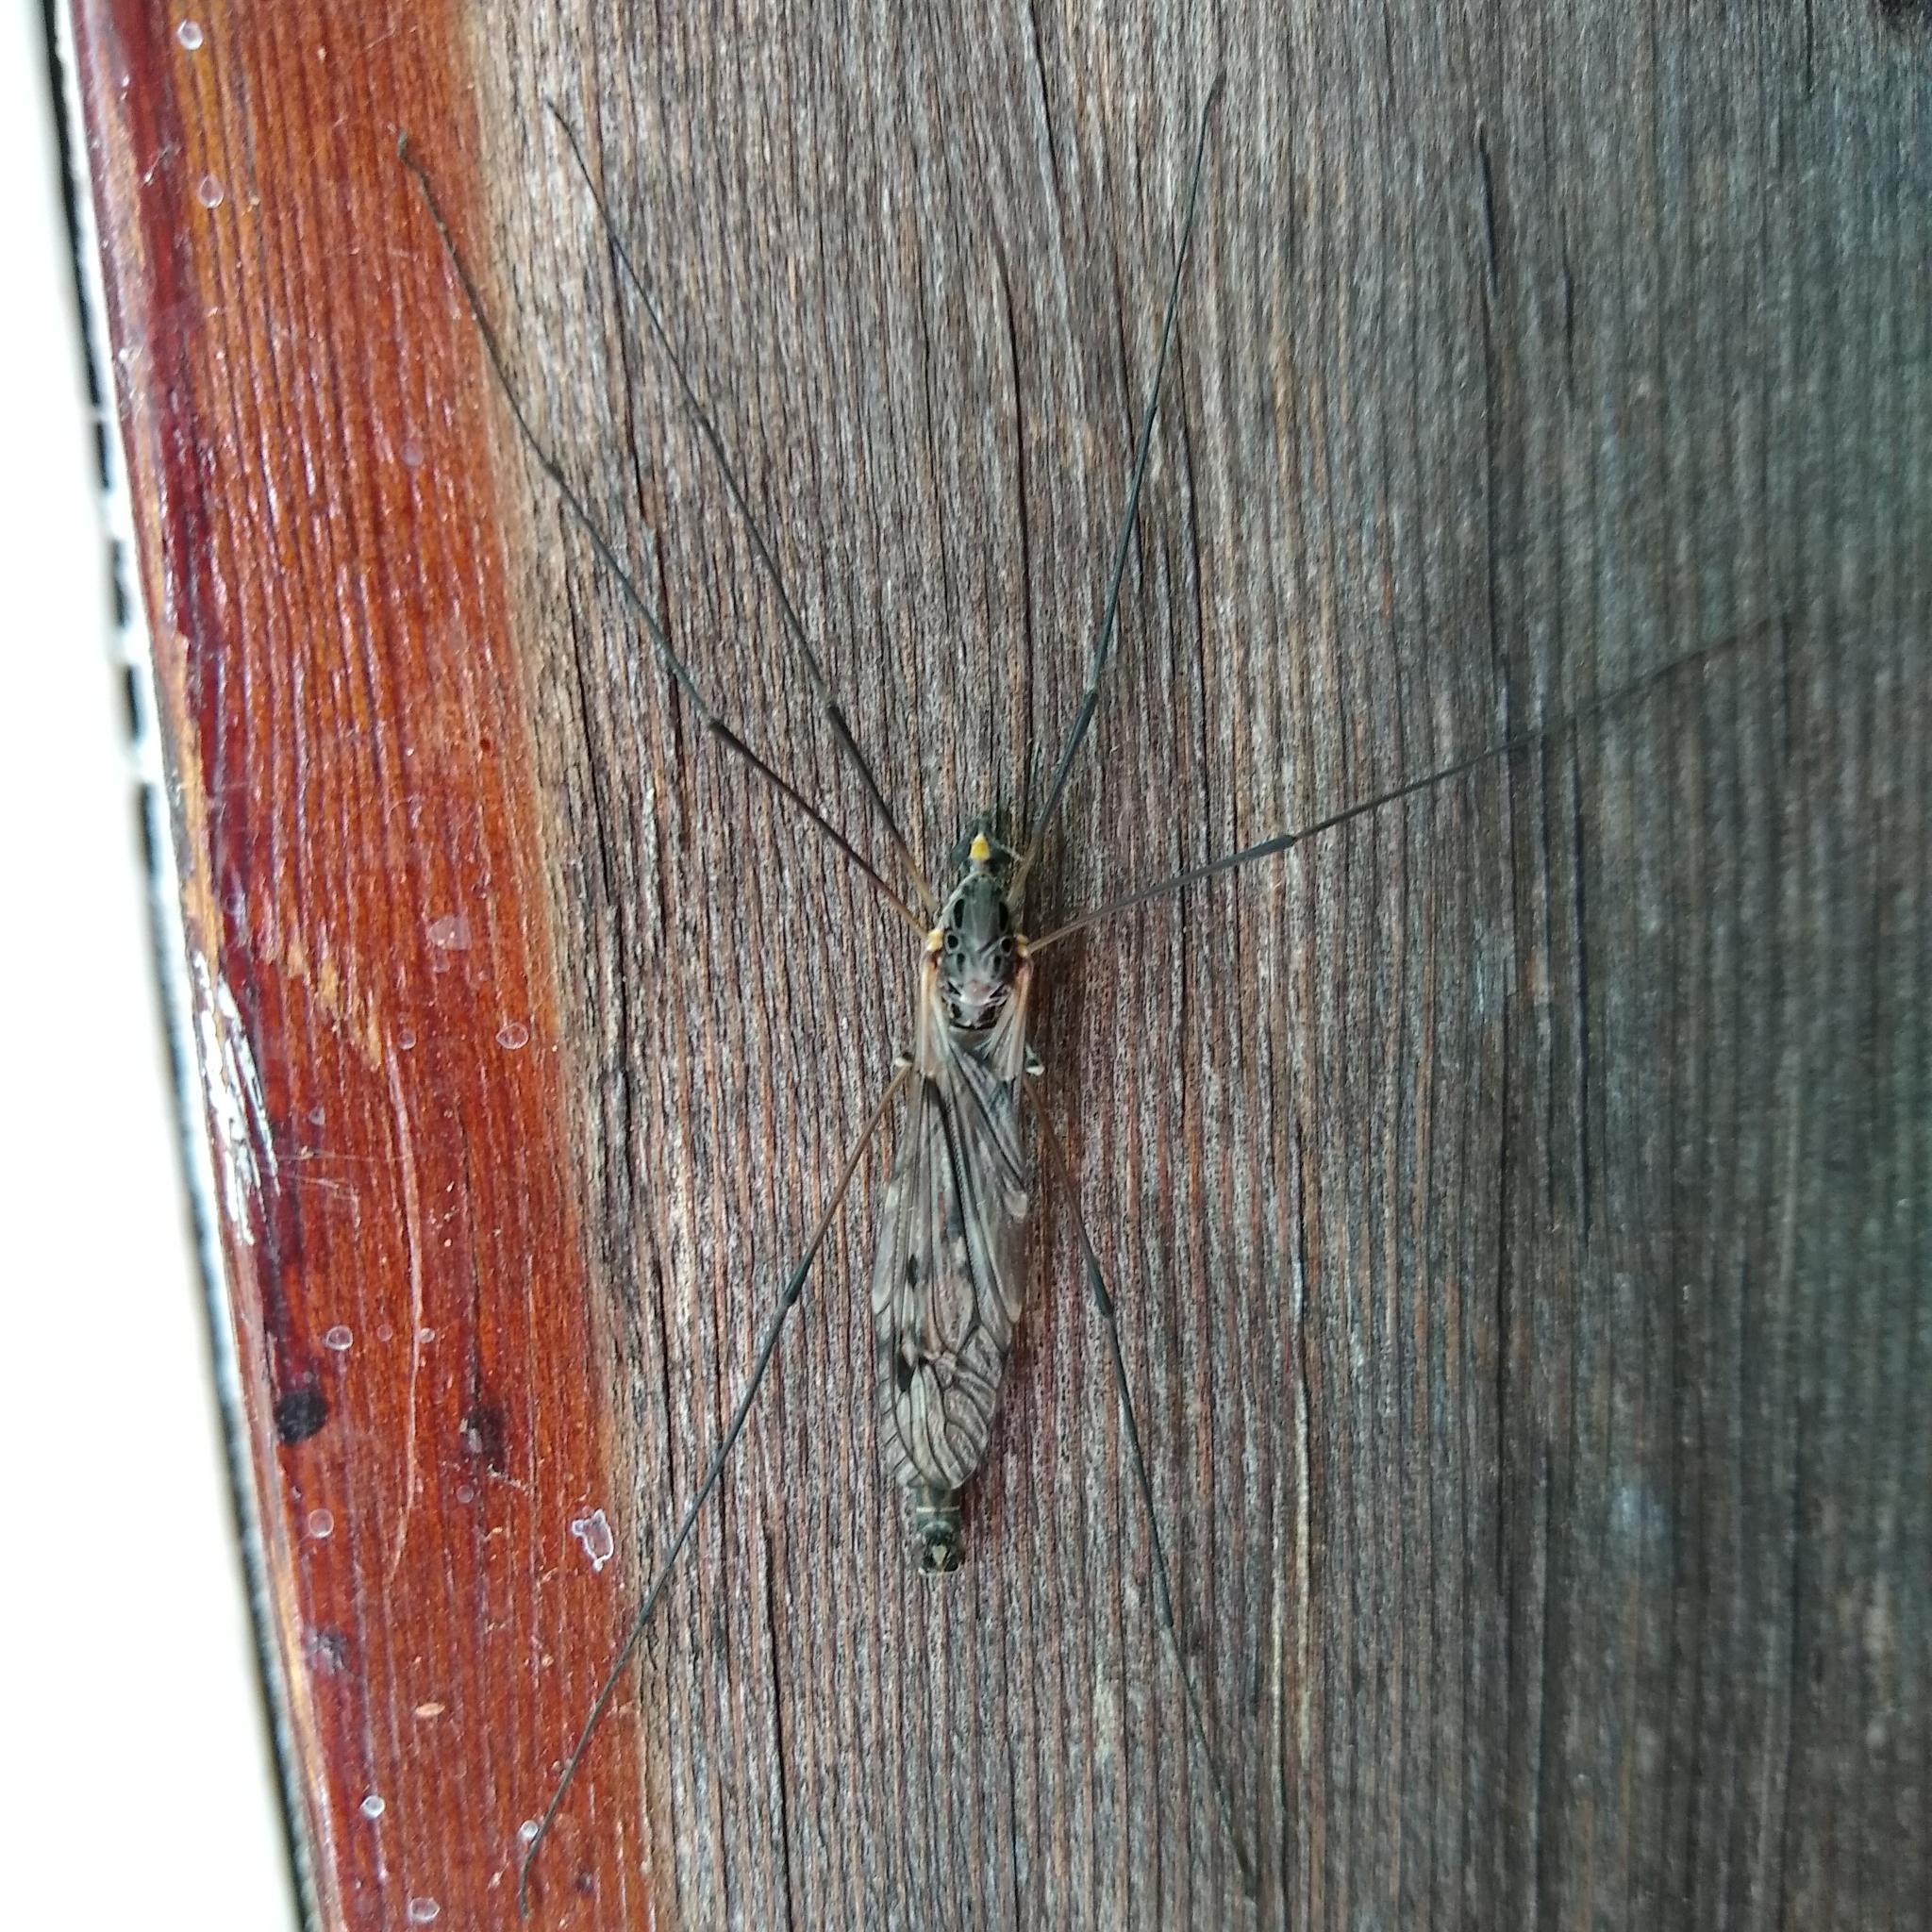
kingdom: Animalia
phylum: Arthropoda
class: Insecta
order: Diptera
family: Tipulidae
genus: Tipula
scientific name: Tipula metacomet
